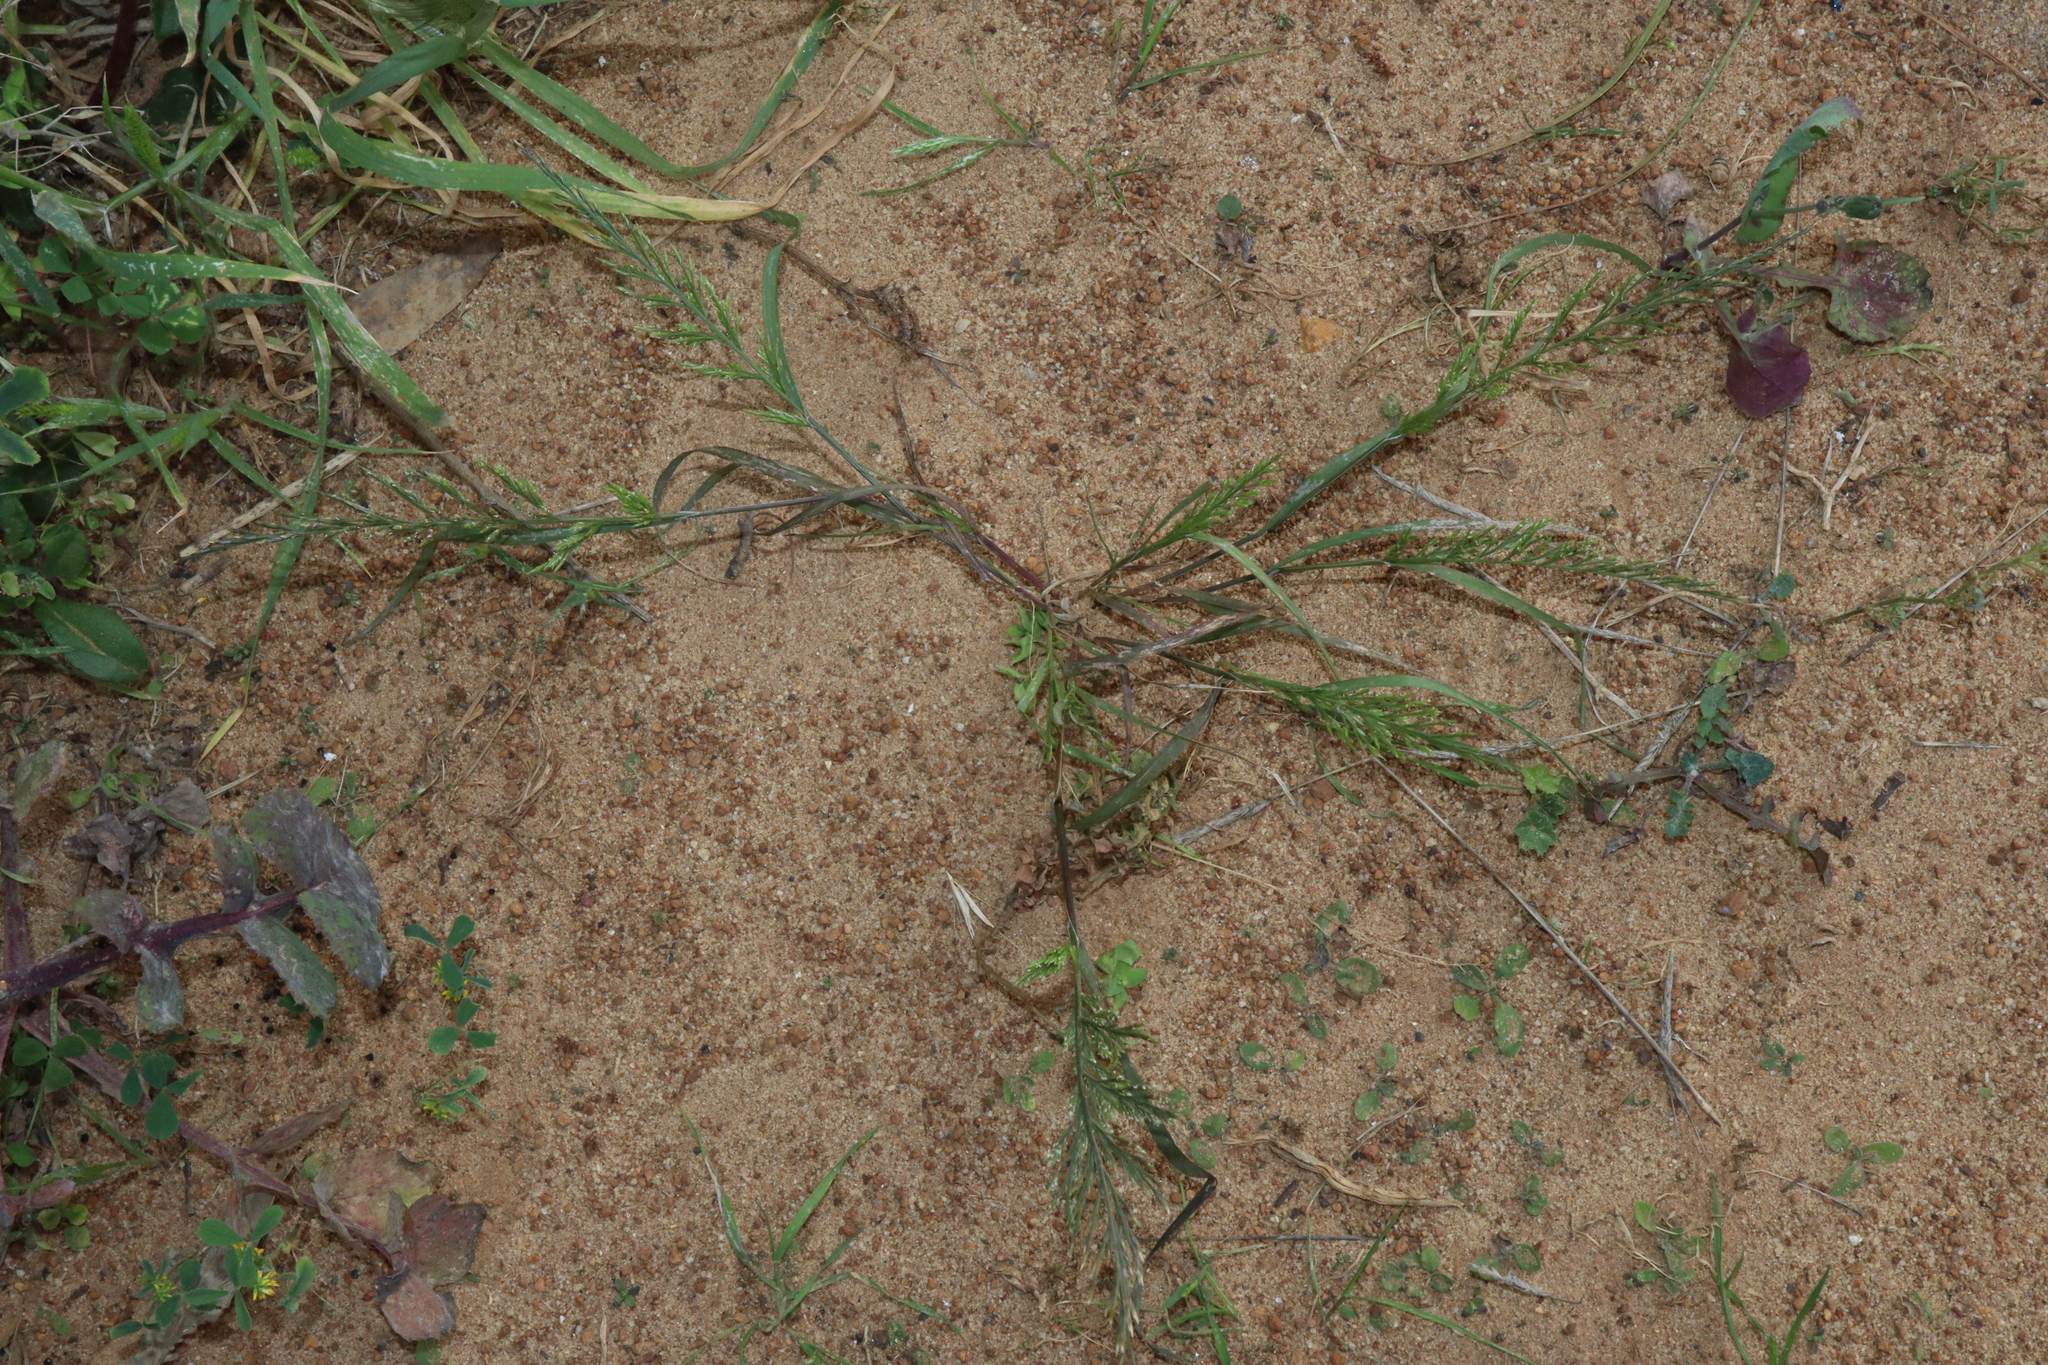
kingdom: Plantae
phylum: Tracheophyta
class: Liliopsida
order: Poales
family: Poaceae
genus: Catapodium
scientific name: Catapodium rigidum
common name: Fern-grass
